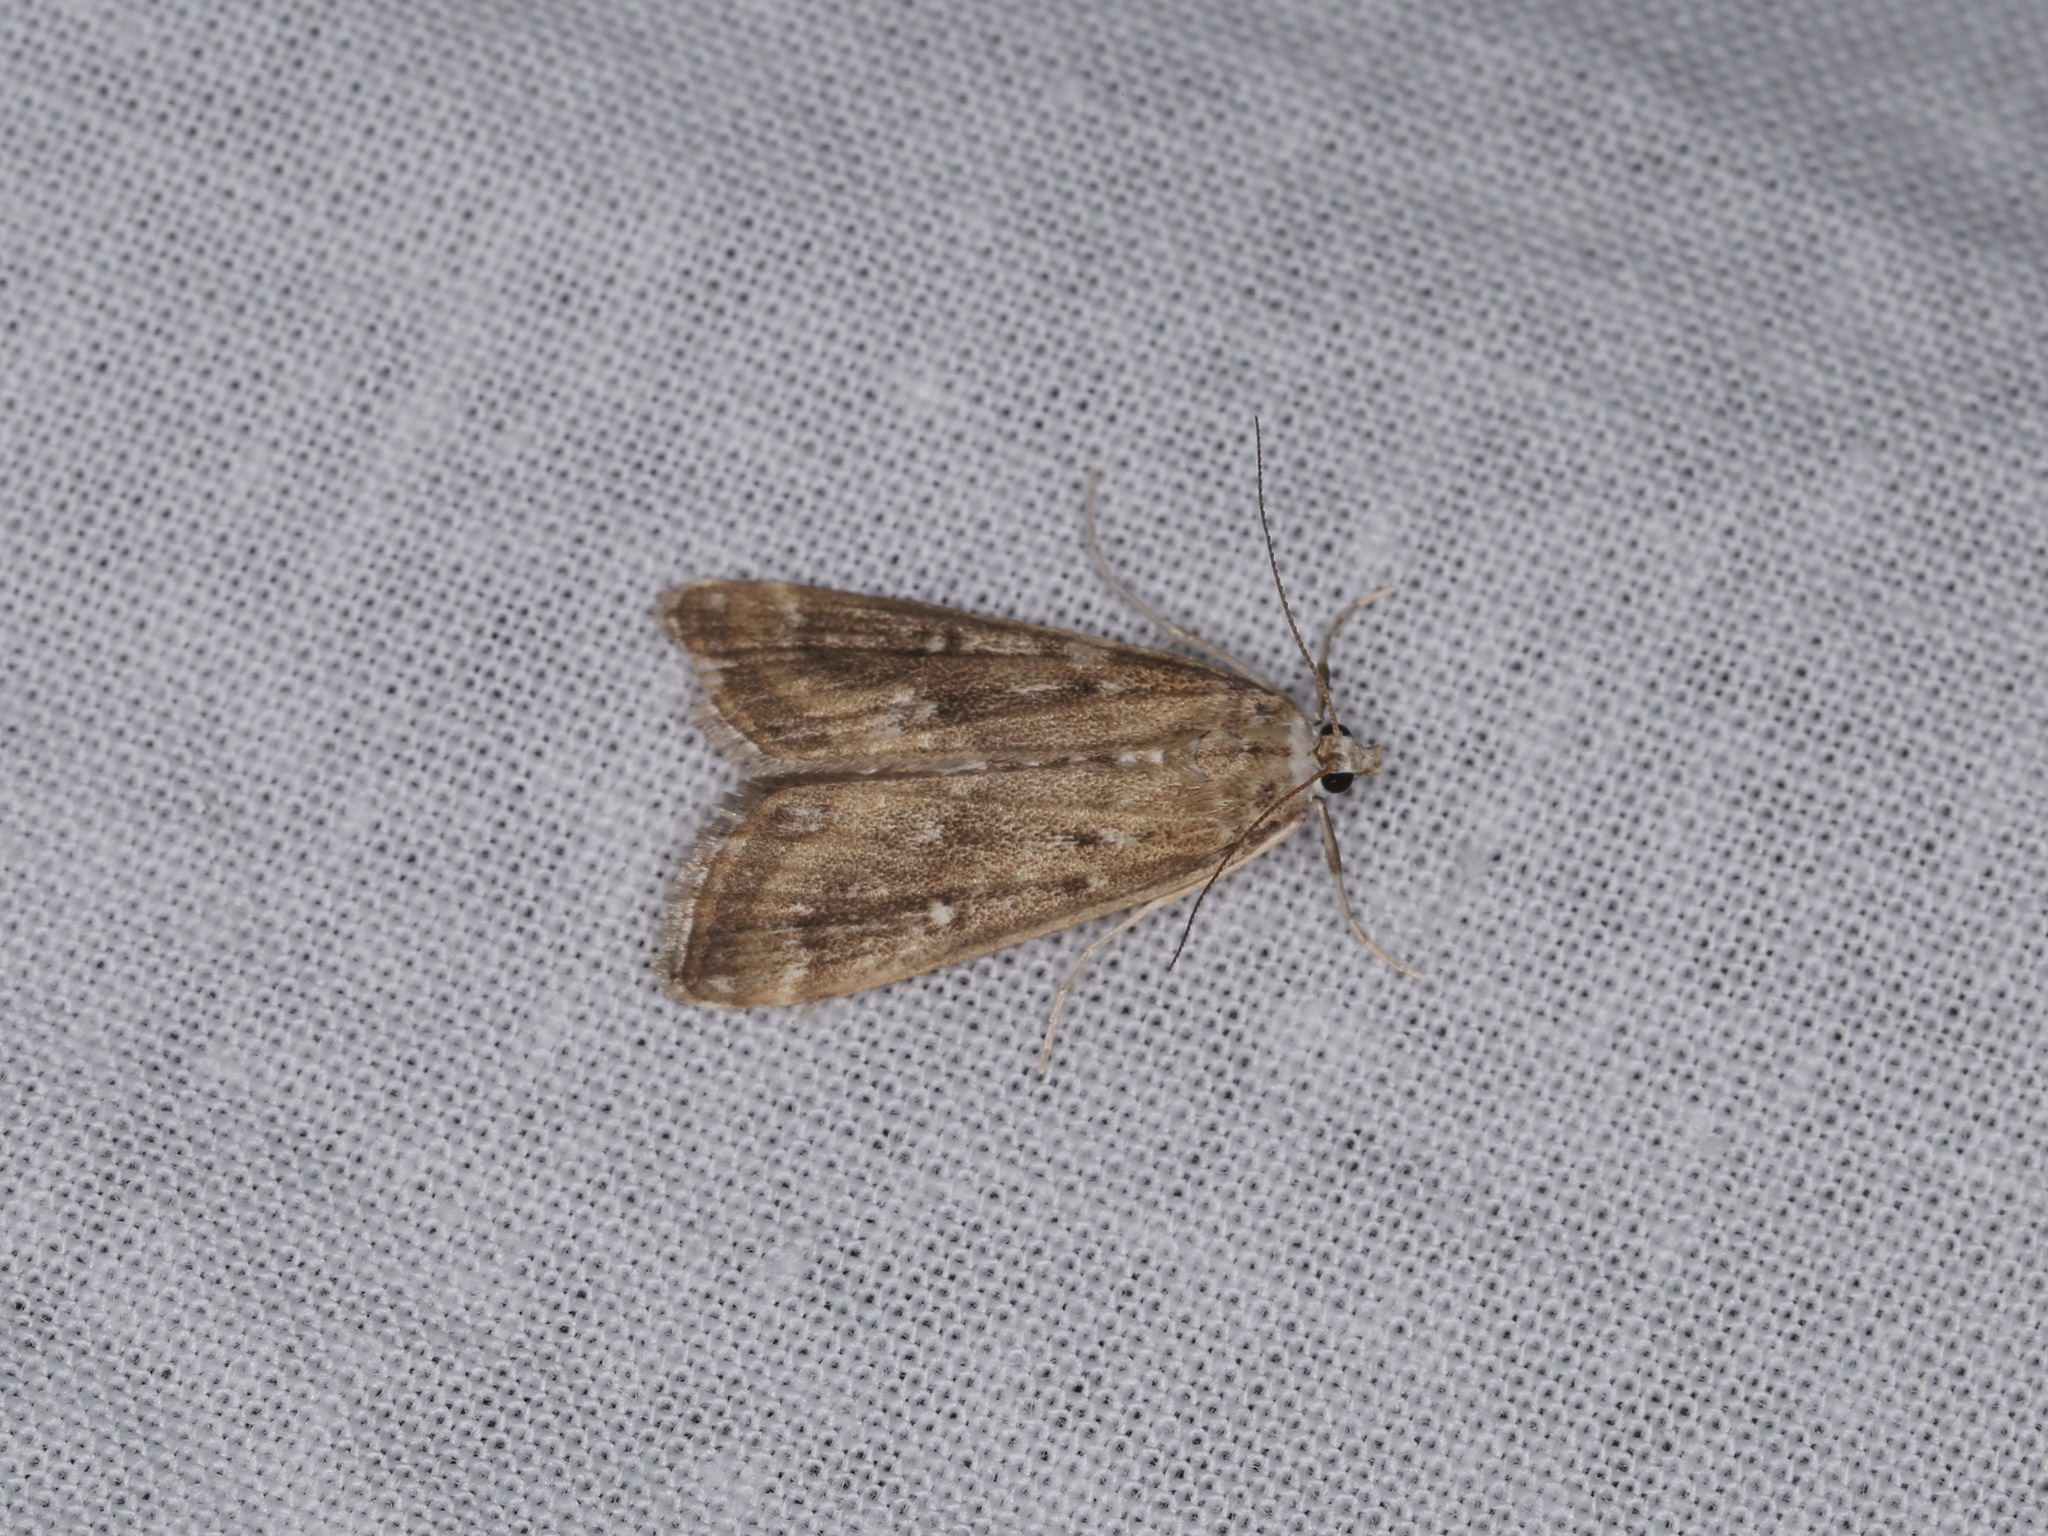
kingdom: Animalia
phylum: Arthropoda
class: Insecta
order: Lepidoptera
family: Crambidae
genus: Parapoynx
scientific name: Parapoynx stratiotata
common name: Ringed china-mark
